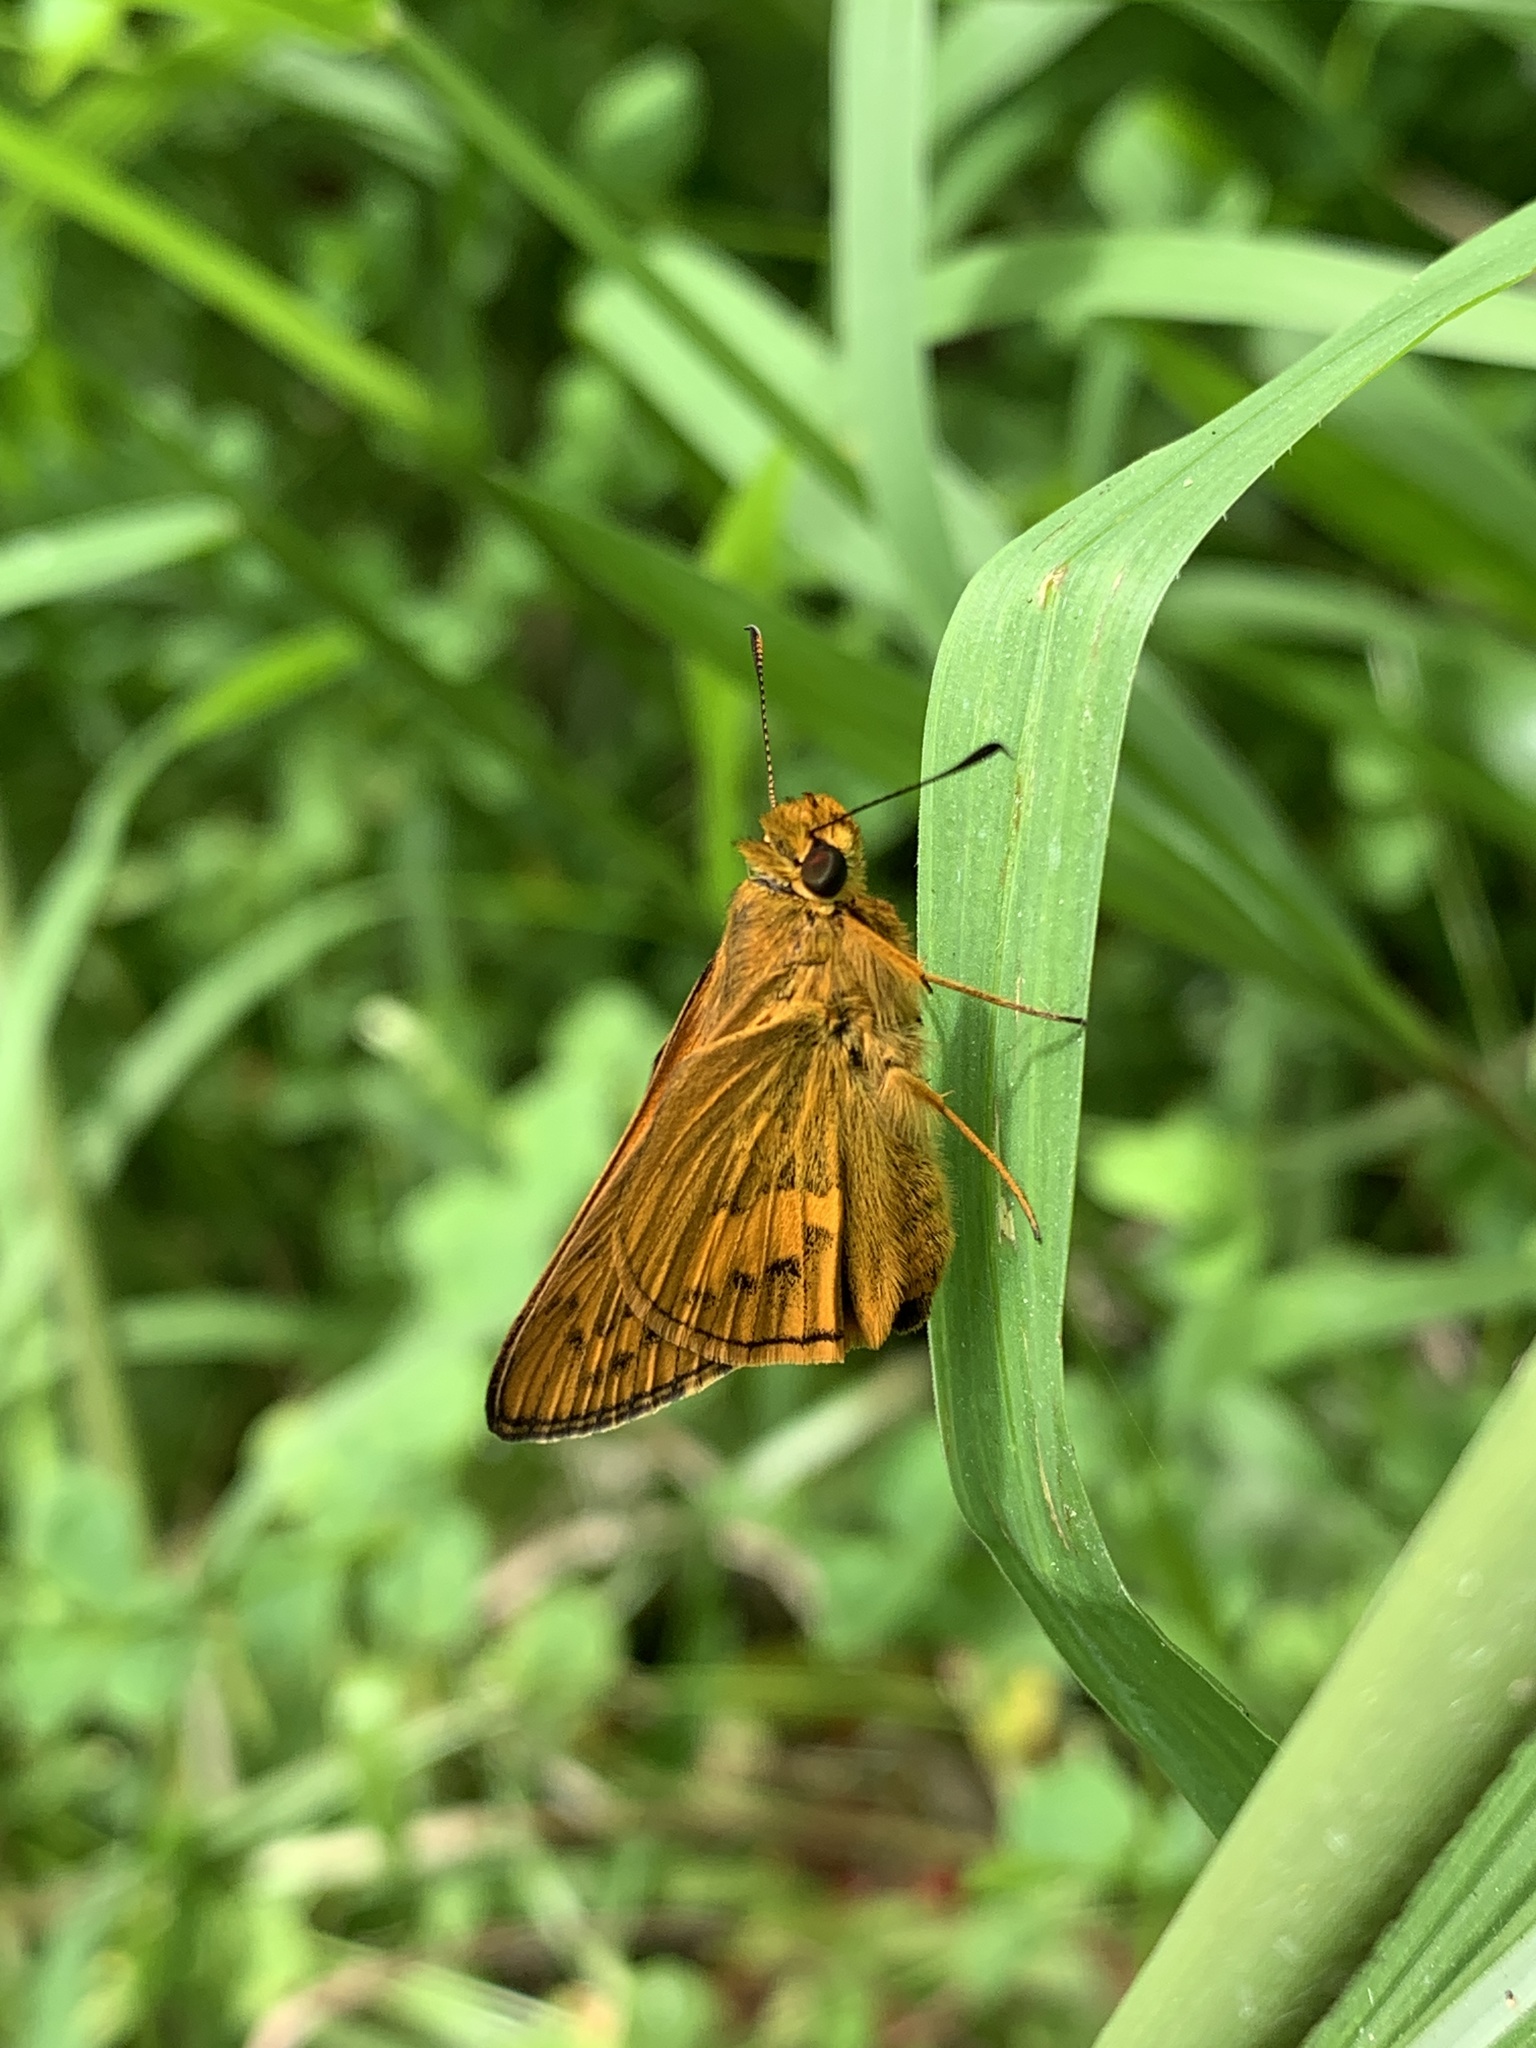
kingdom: Animalia
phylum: Arthropoda
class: Insecta
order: Lepidoptera
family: Hesperiidae
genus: Telicota
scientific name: Telicota bambusae
